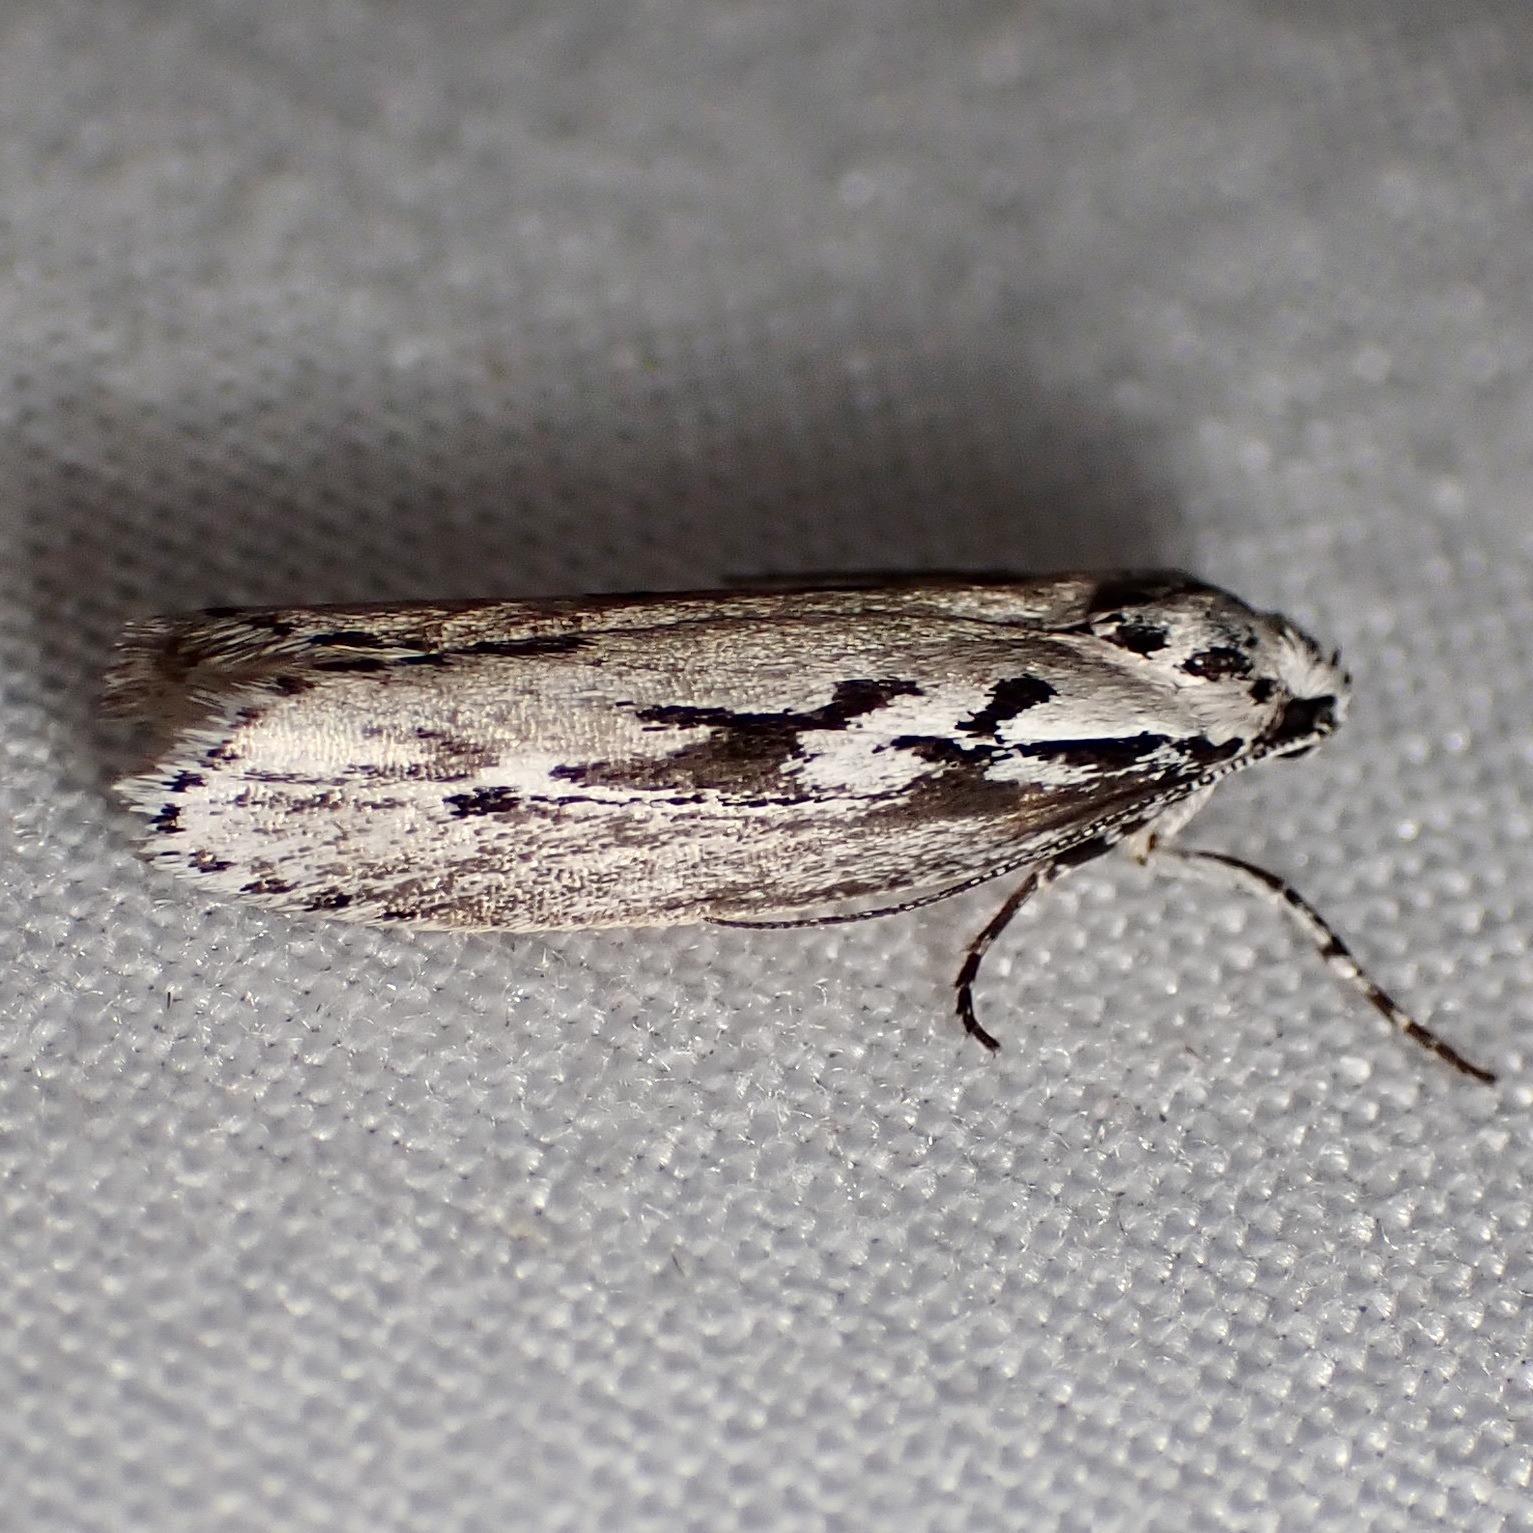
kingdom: Animalia
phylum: Arthropoda
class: Insecta
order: Lepidoptera
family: Ethmiidae
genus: Ethmia
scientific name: Ethmia semitenebrella
